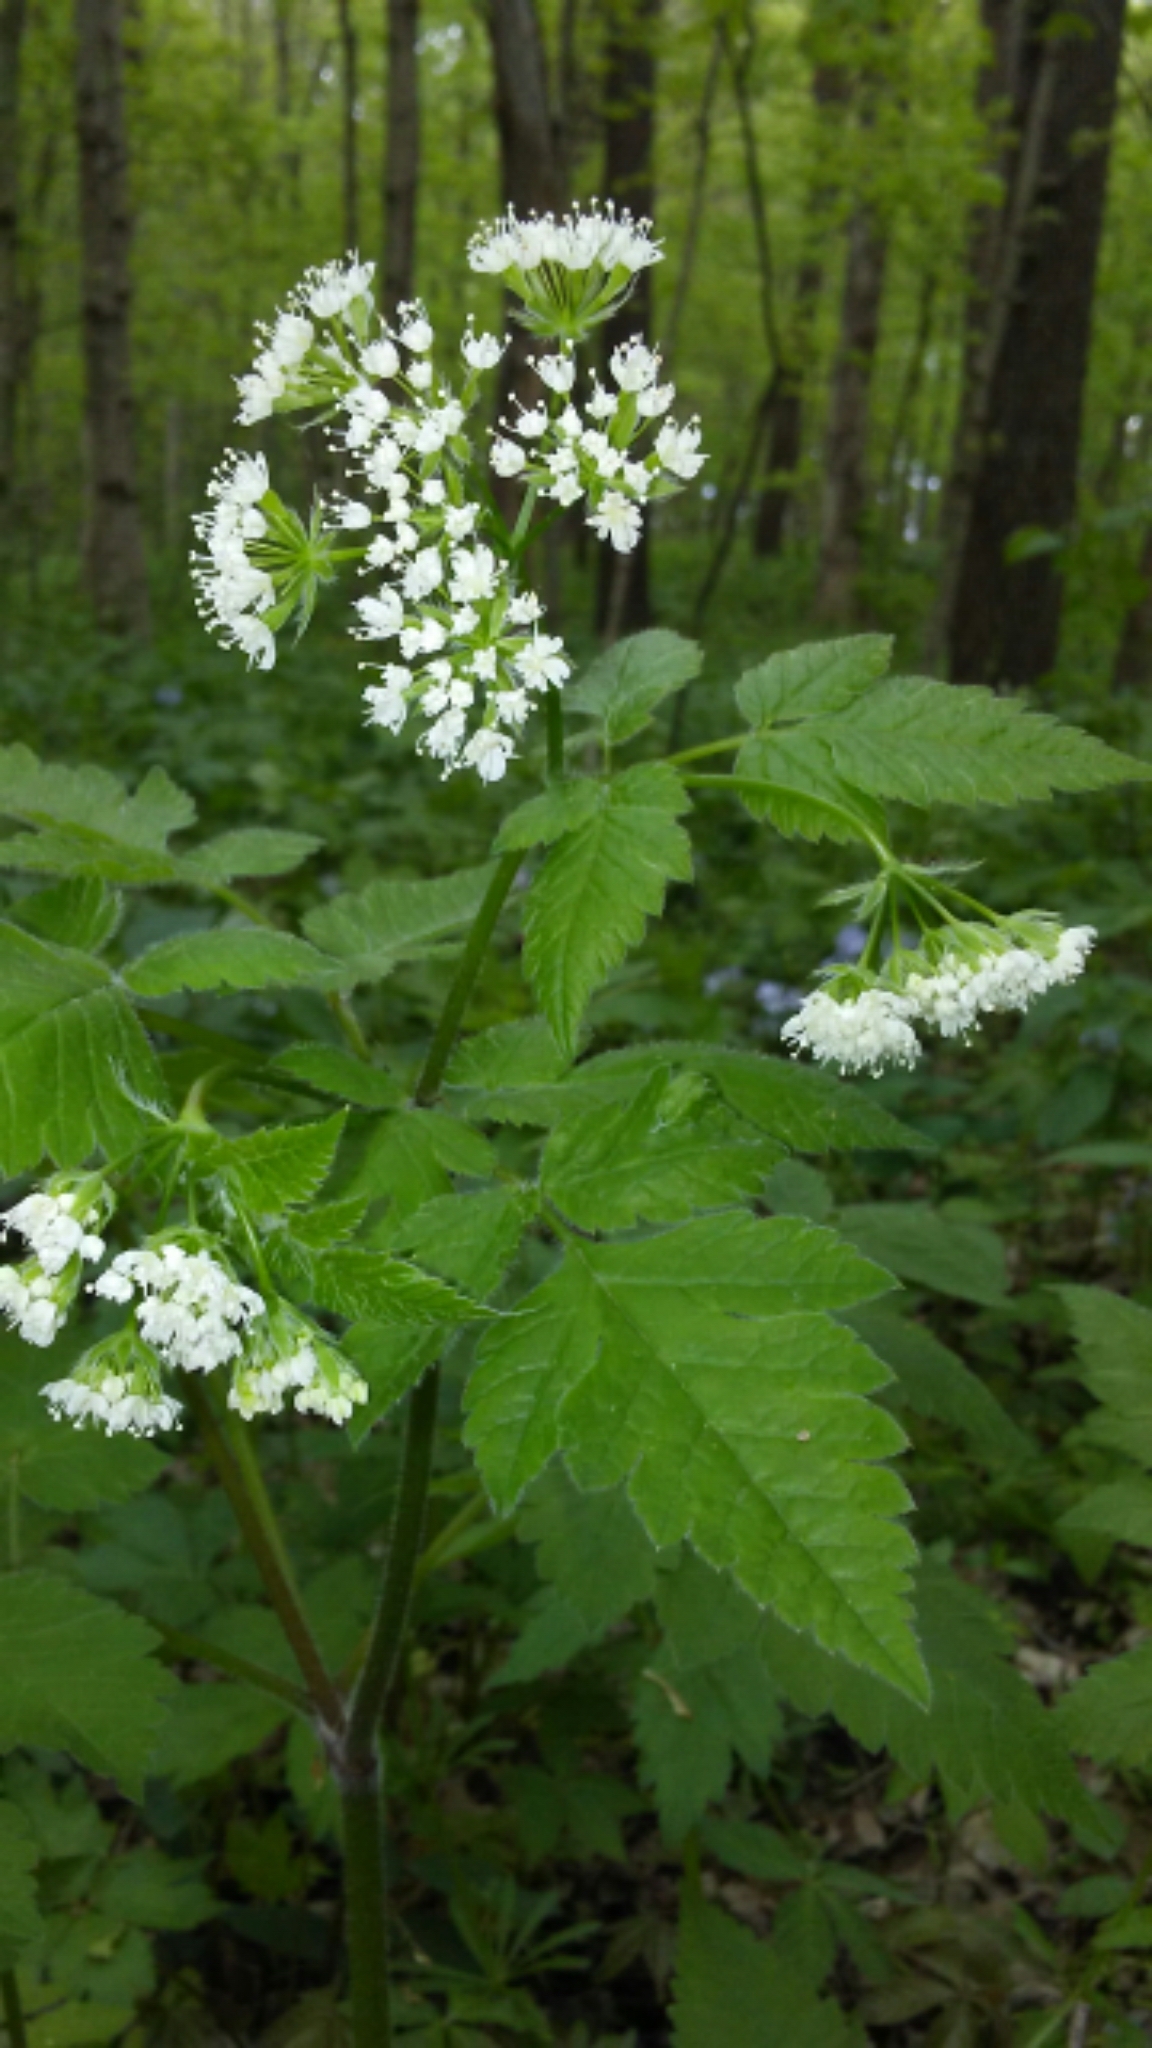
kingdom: Plantae
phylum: Tracheophyta
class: Magnoliopsida
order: Apiales
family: Apiaceae
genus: Osmorhiza
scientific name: Osmorhiza longistylis
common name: Smooth sweet cicely
